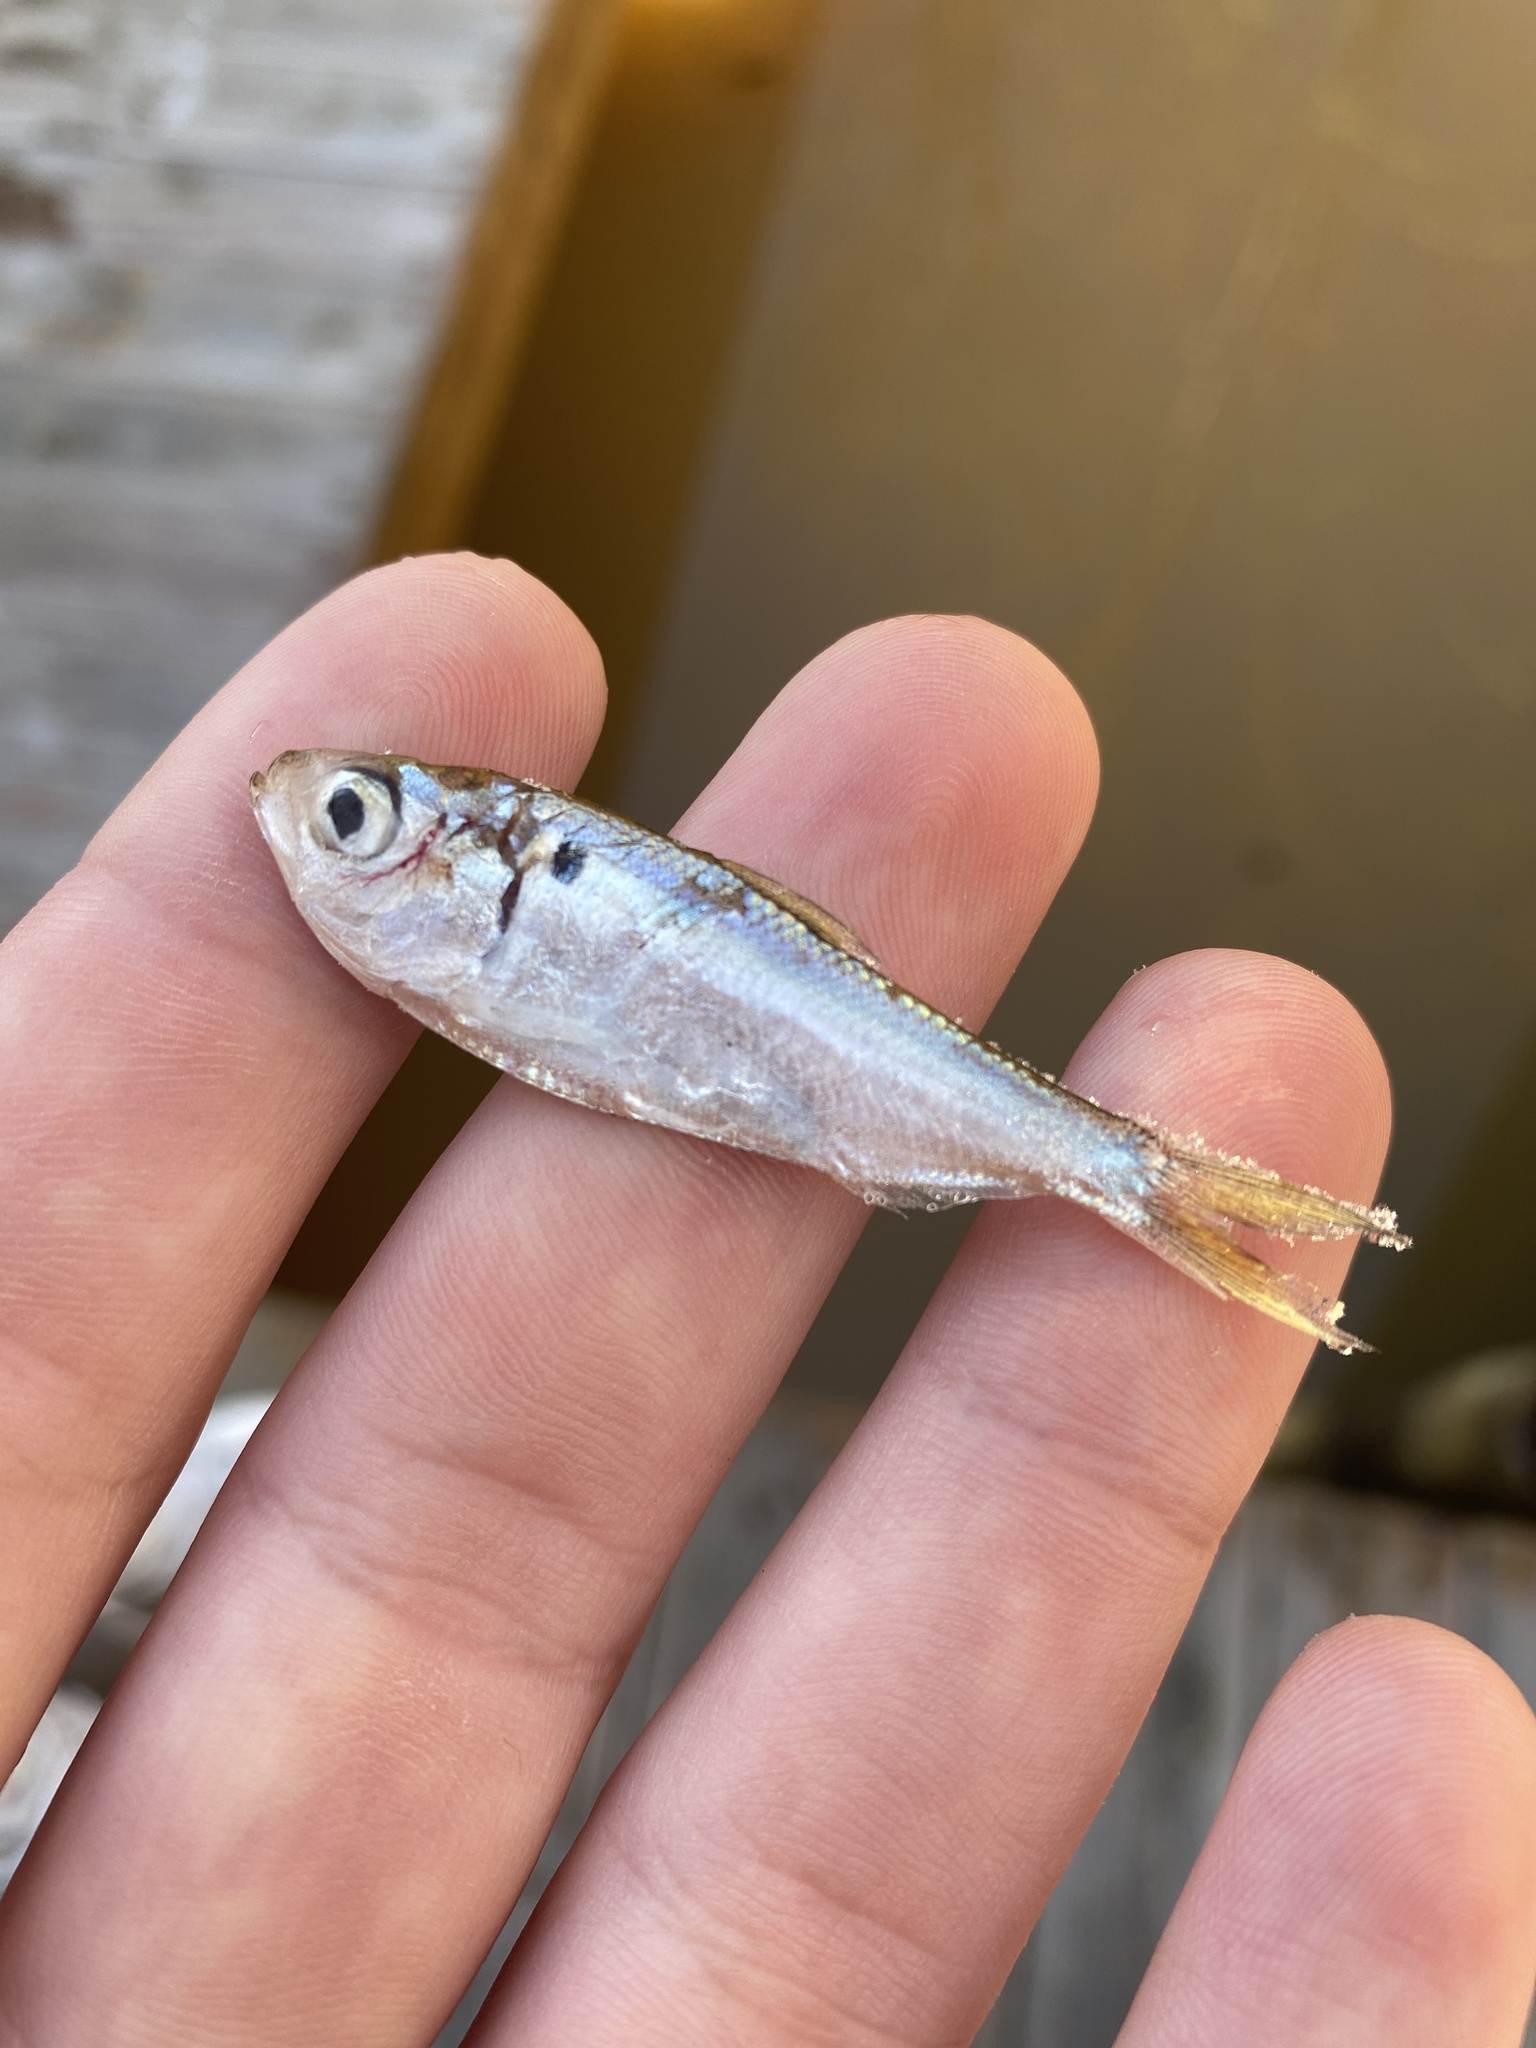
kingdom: Animalia
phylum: Chordata
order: Clupeiformes
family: Clupeidae
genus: Dorosoma
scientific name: Dorosoma petenense
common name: Threadfin shad
